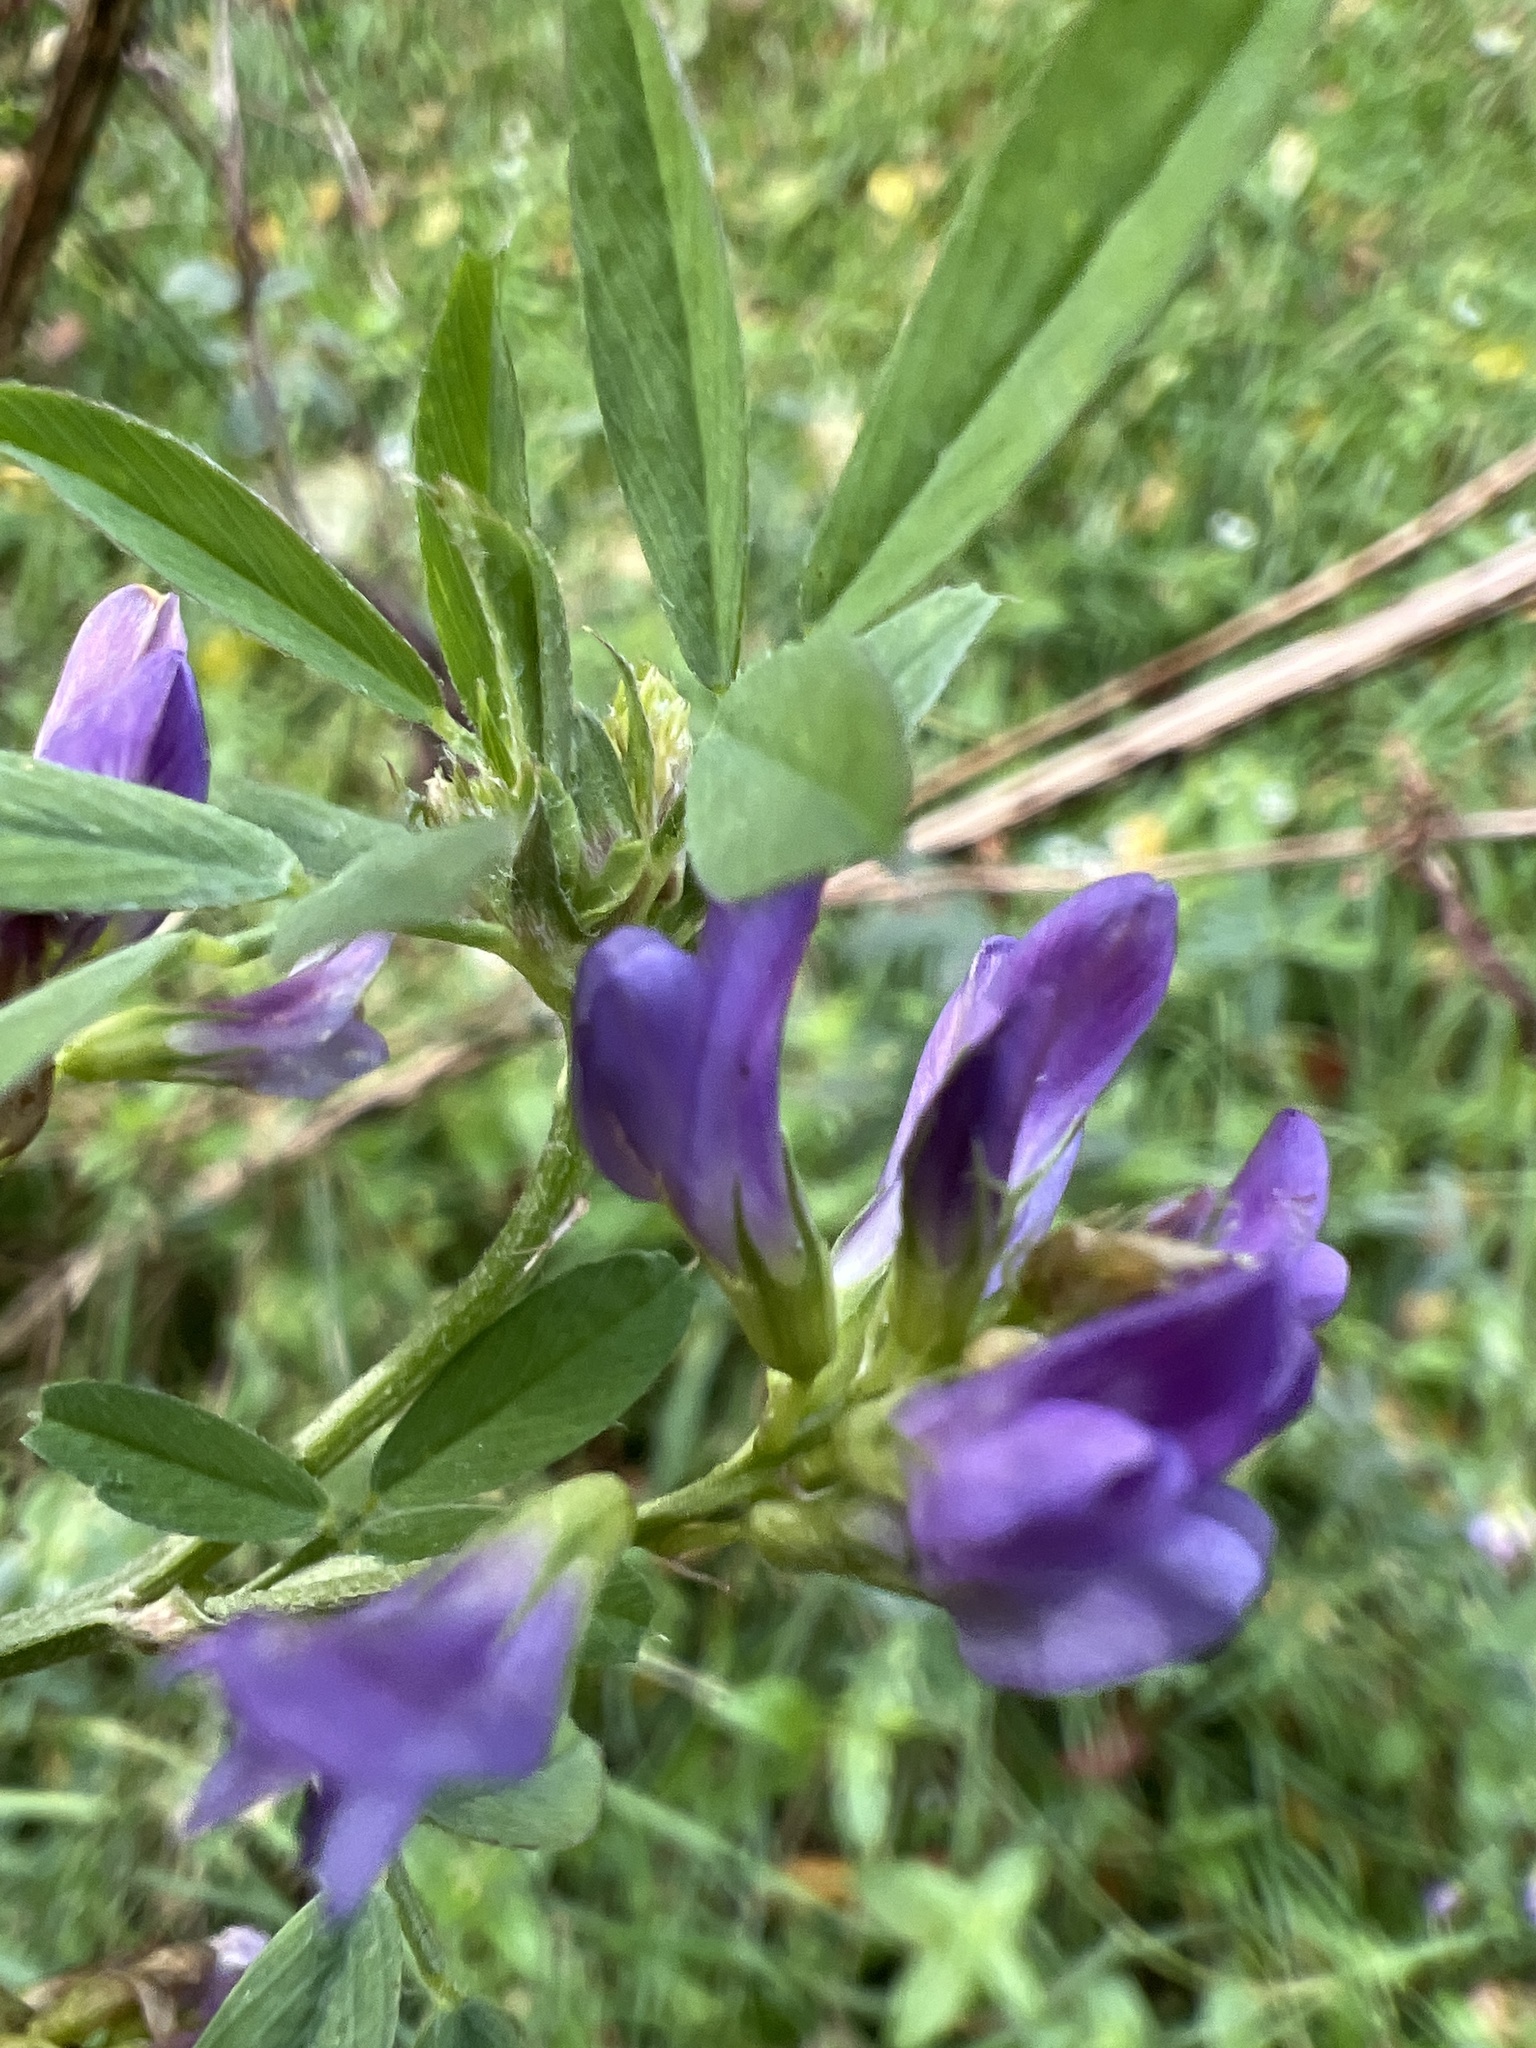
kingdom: Plantae
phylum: Tracheophyta
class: Magnoliopsida
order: Fabales
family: Fabaceae
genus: Medicago
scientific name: Medicago sativa
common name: Alfalfa
